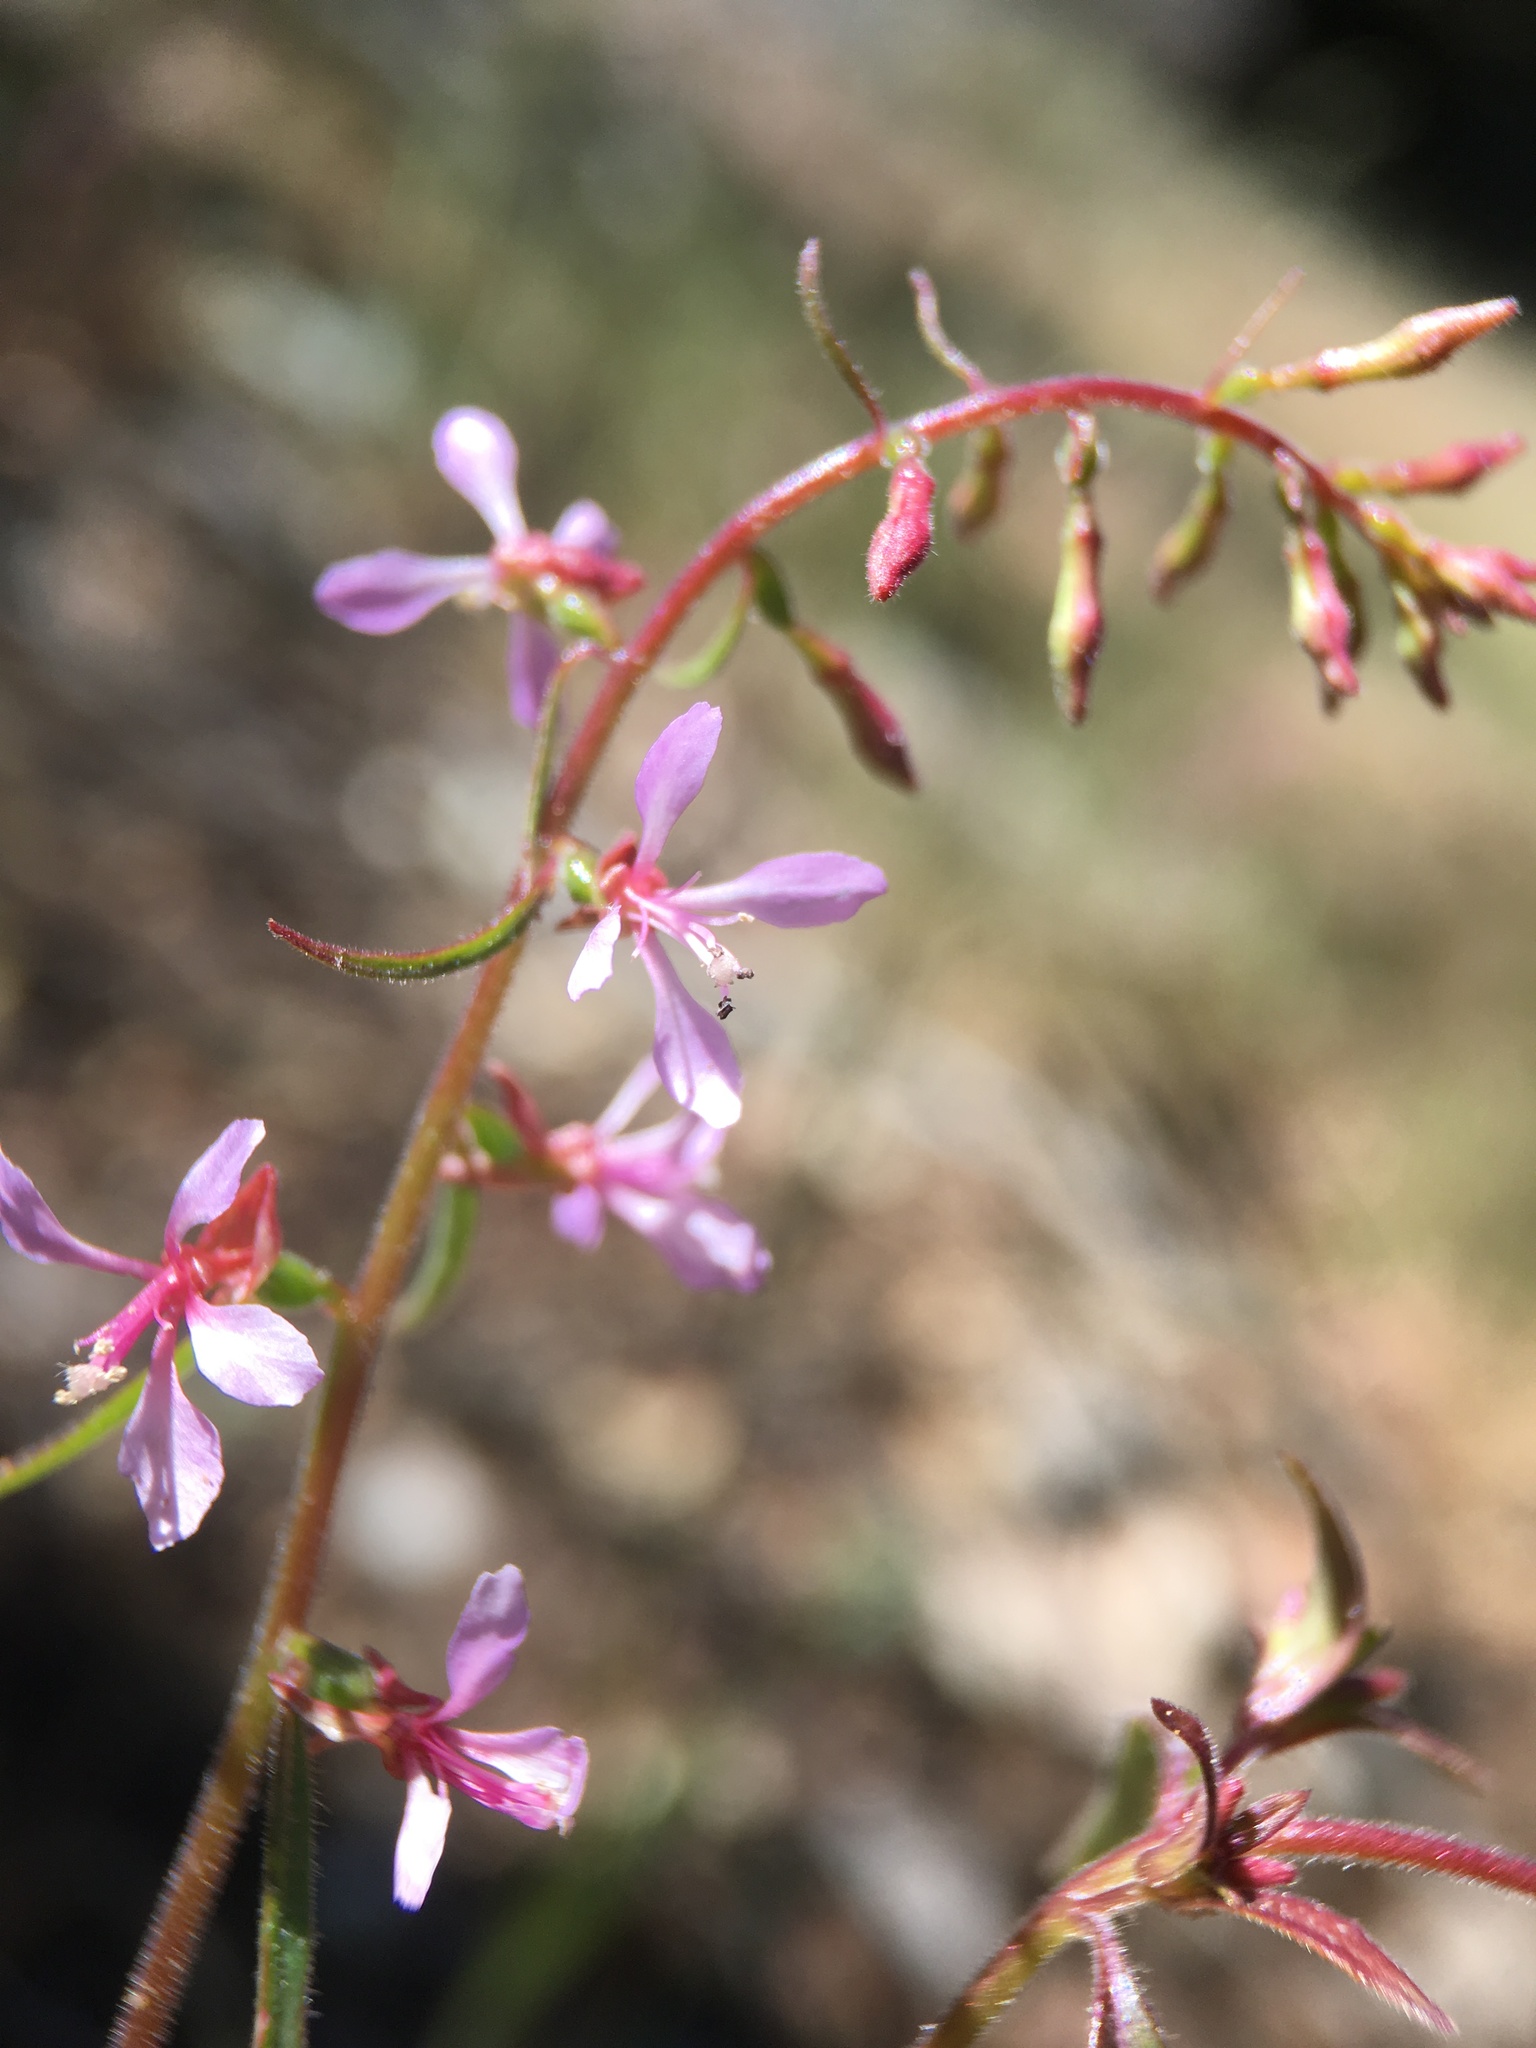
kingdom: Plantae
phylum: Tracheophyta
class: Magnoliopsida
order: Myrtales
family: Onagraceae
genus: Clarkia
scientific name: Clarkia heterandra
